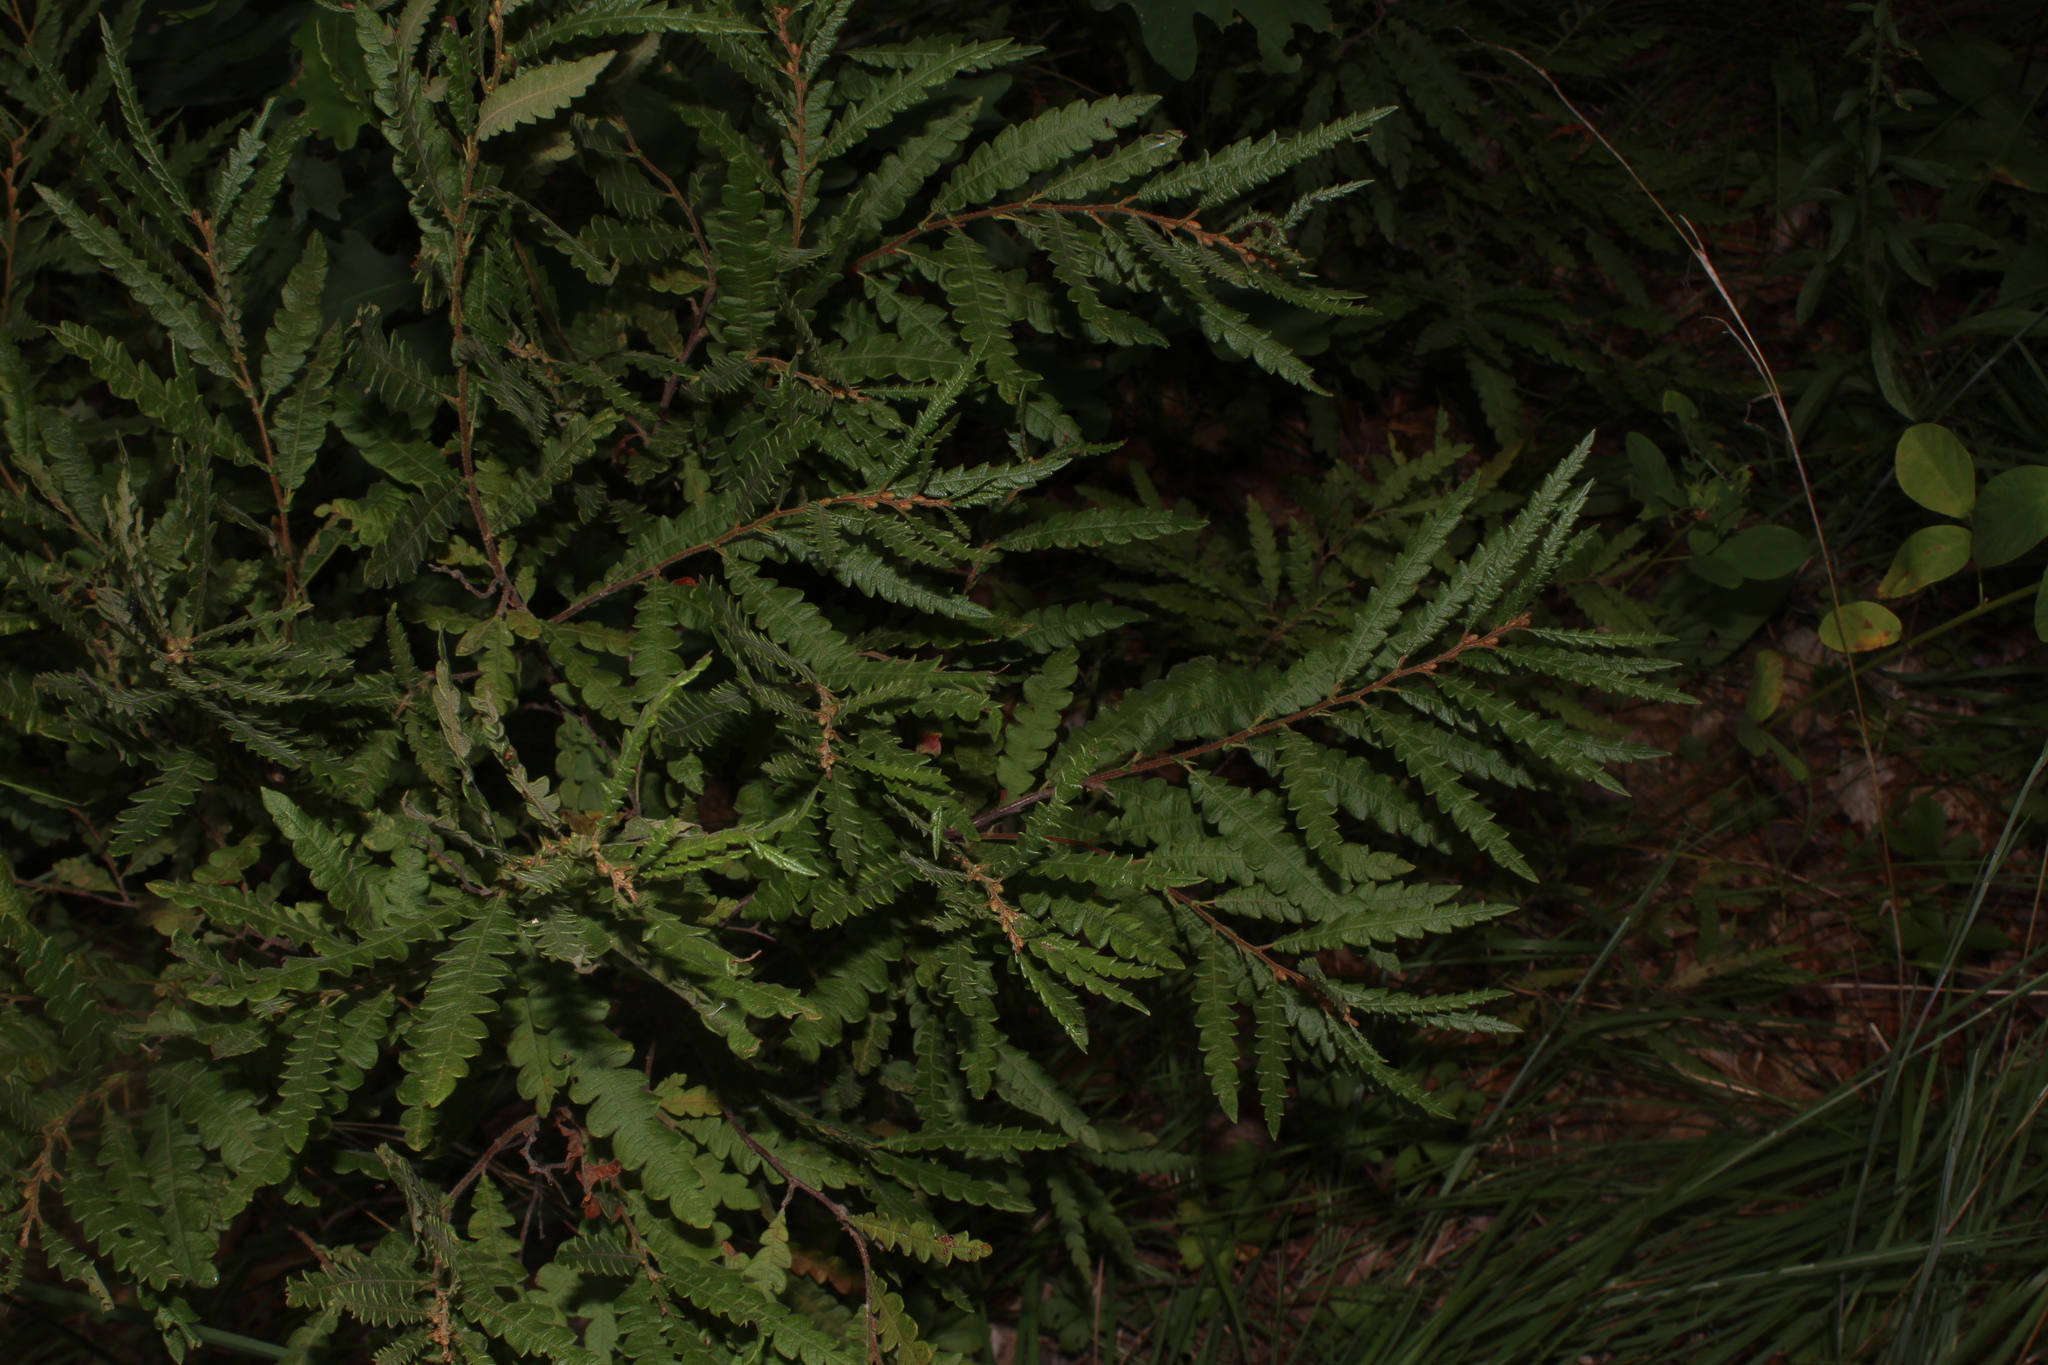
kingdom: Plantae
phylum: Tracheophyta
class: Magnoliopsida
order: Fagales
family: Myricaceae
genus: Comptonia
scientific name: Comptonia peregrina
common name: Sweet-fern
